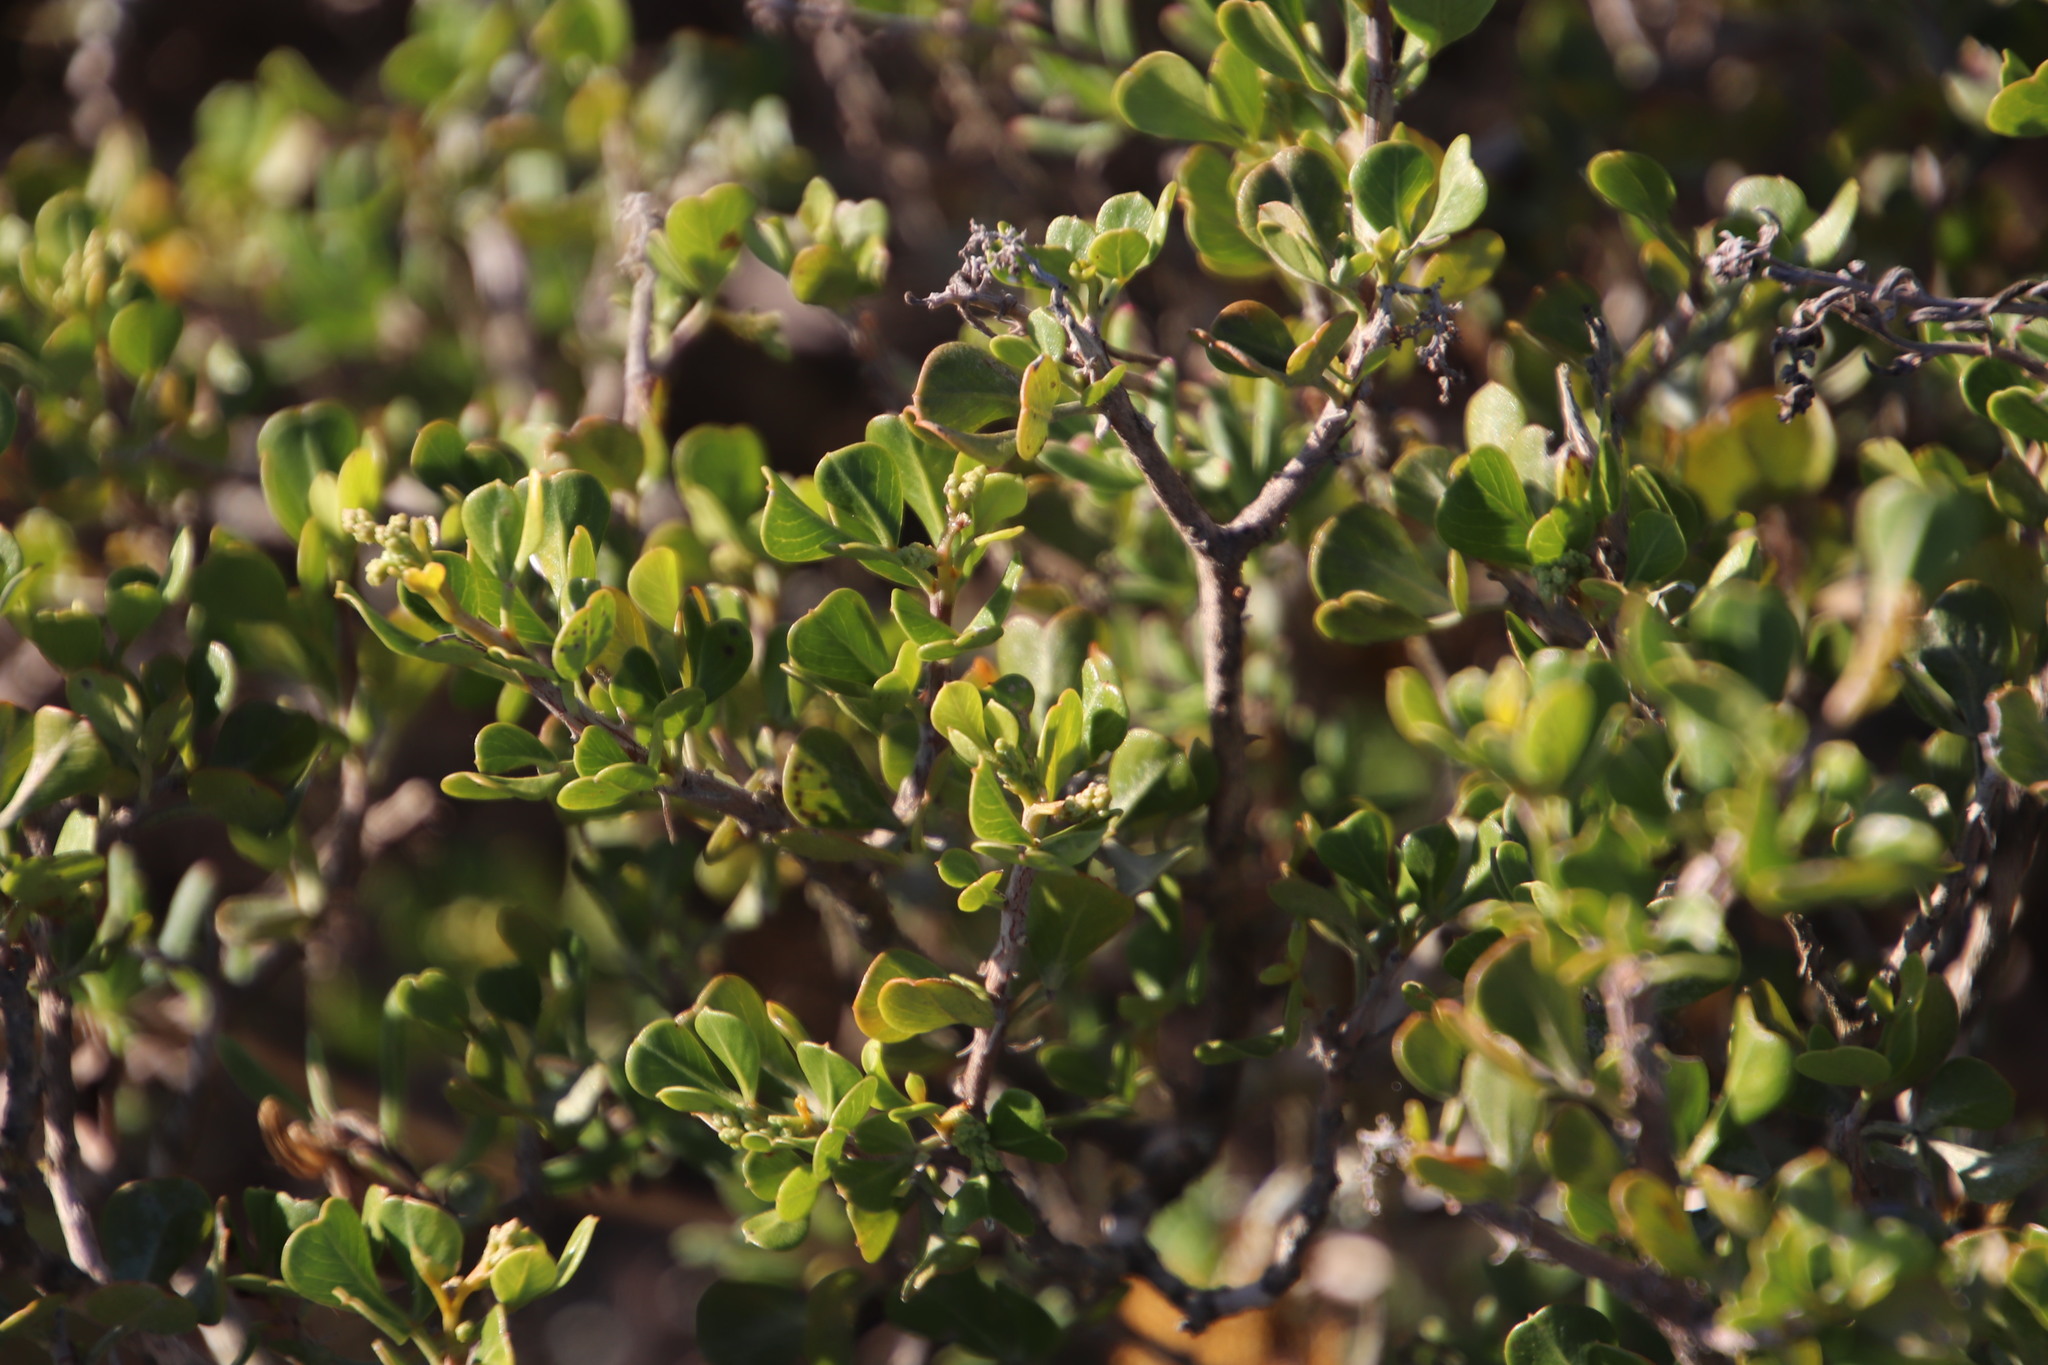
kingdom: Plantae
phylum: Tracheophyta
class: Magnoliopsida
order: Sapindales
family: Anacardiaceae
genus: Searsia
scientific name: Searsia glauca
